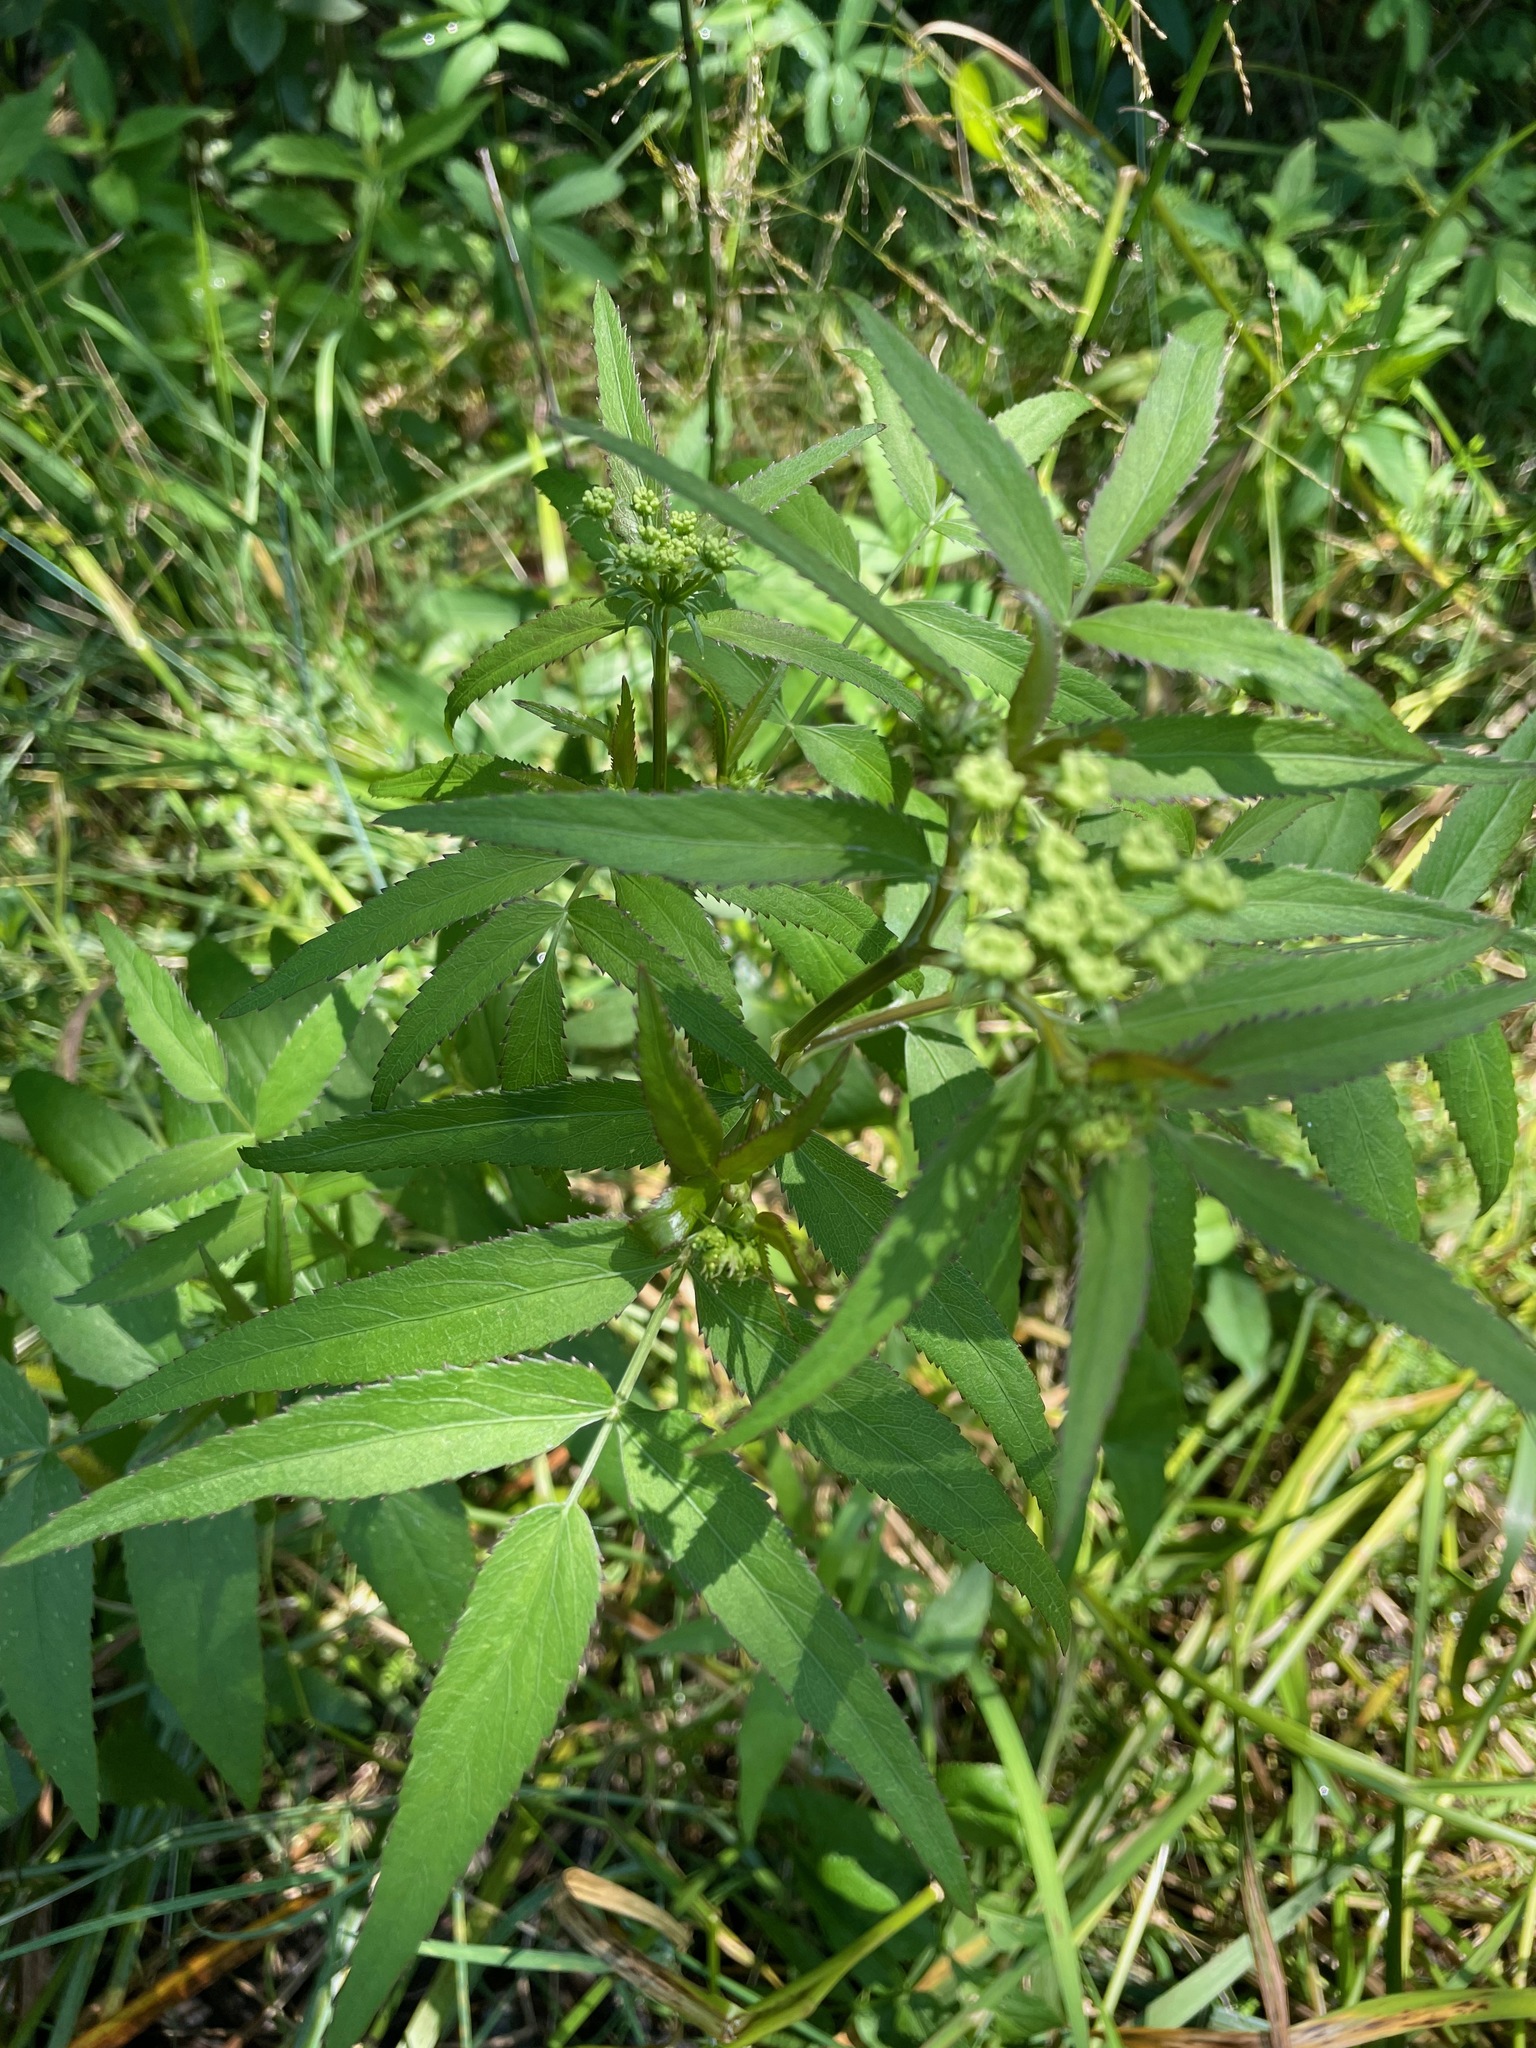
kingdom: Plantae
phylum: Tracheophyta
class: Magnoliopsida
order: Apiales
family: Apiaceae
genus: Sium
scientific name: Sium suave
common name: Hemlock water-parsnip
